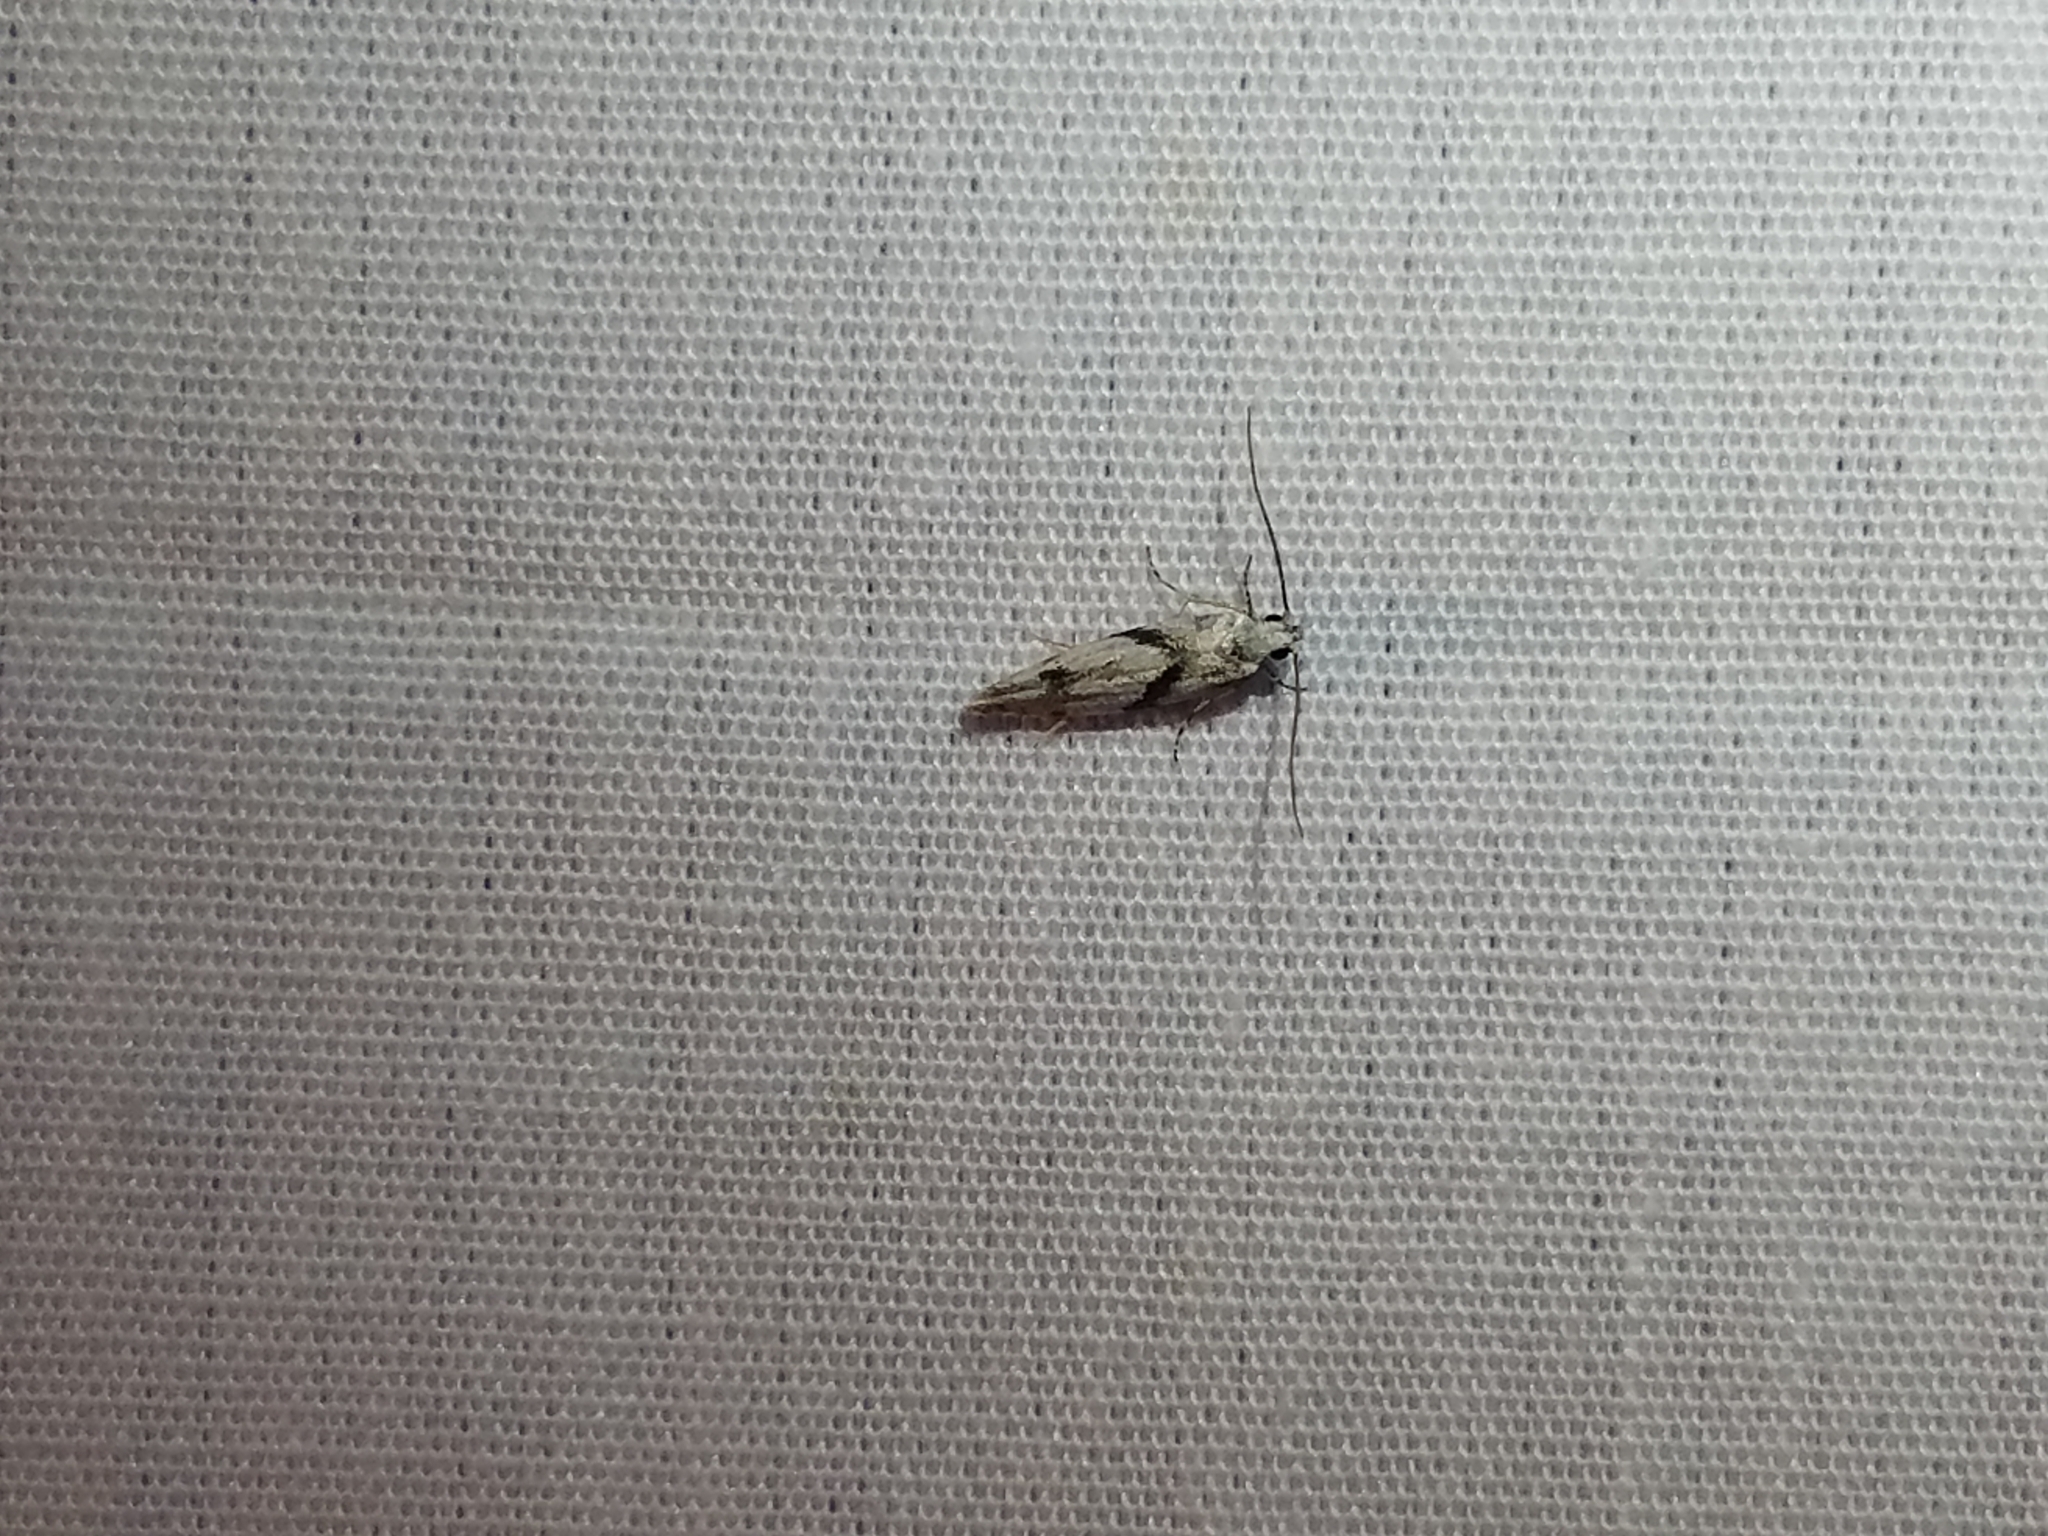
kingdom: Animalia
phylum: Arthropoda
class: Insecta
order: Lepidoptera
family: Gelechiidae
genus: Arogalea
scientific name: Arogalea cristifasciella
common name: White stripe-backed moth
